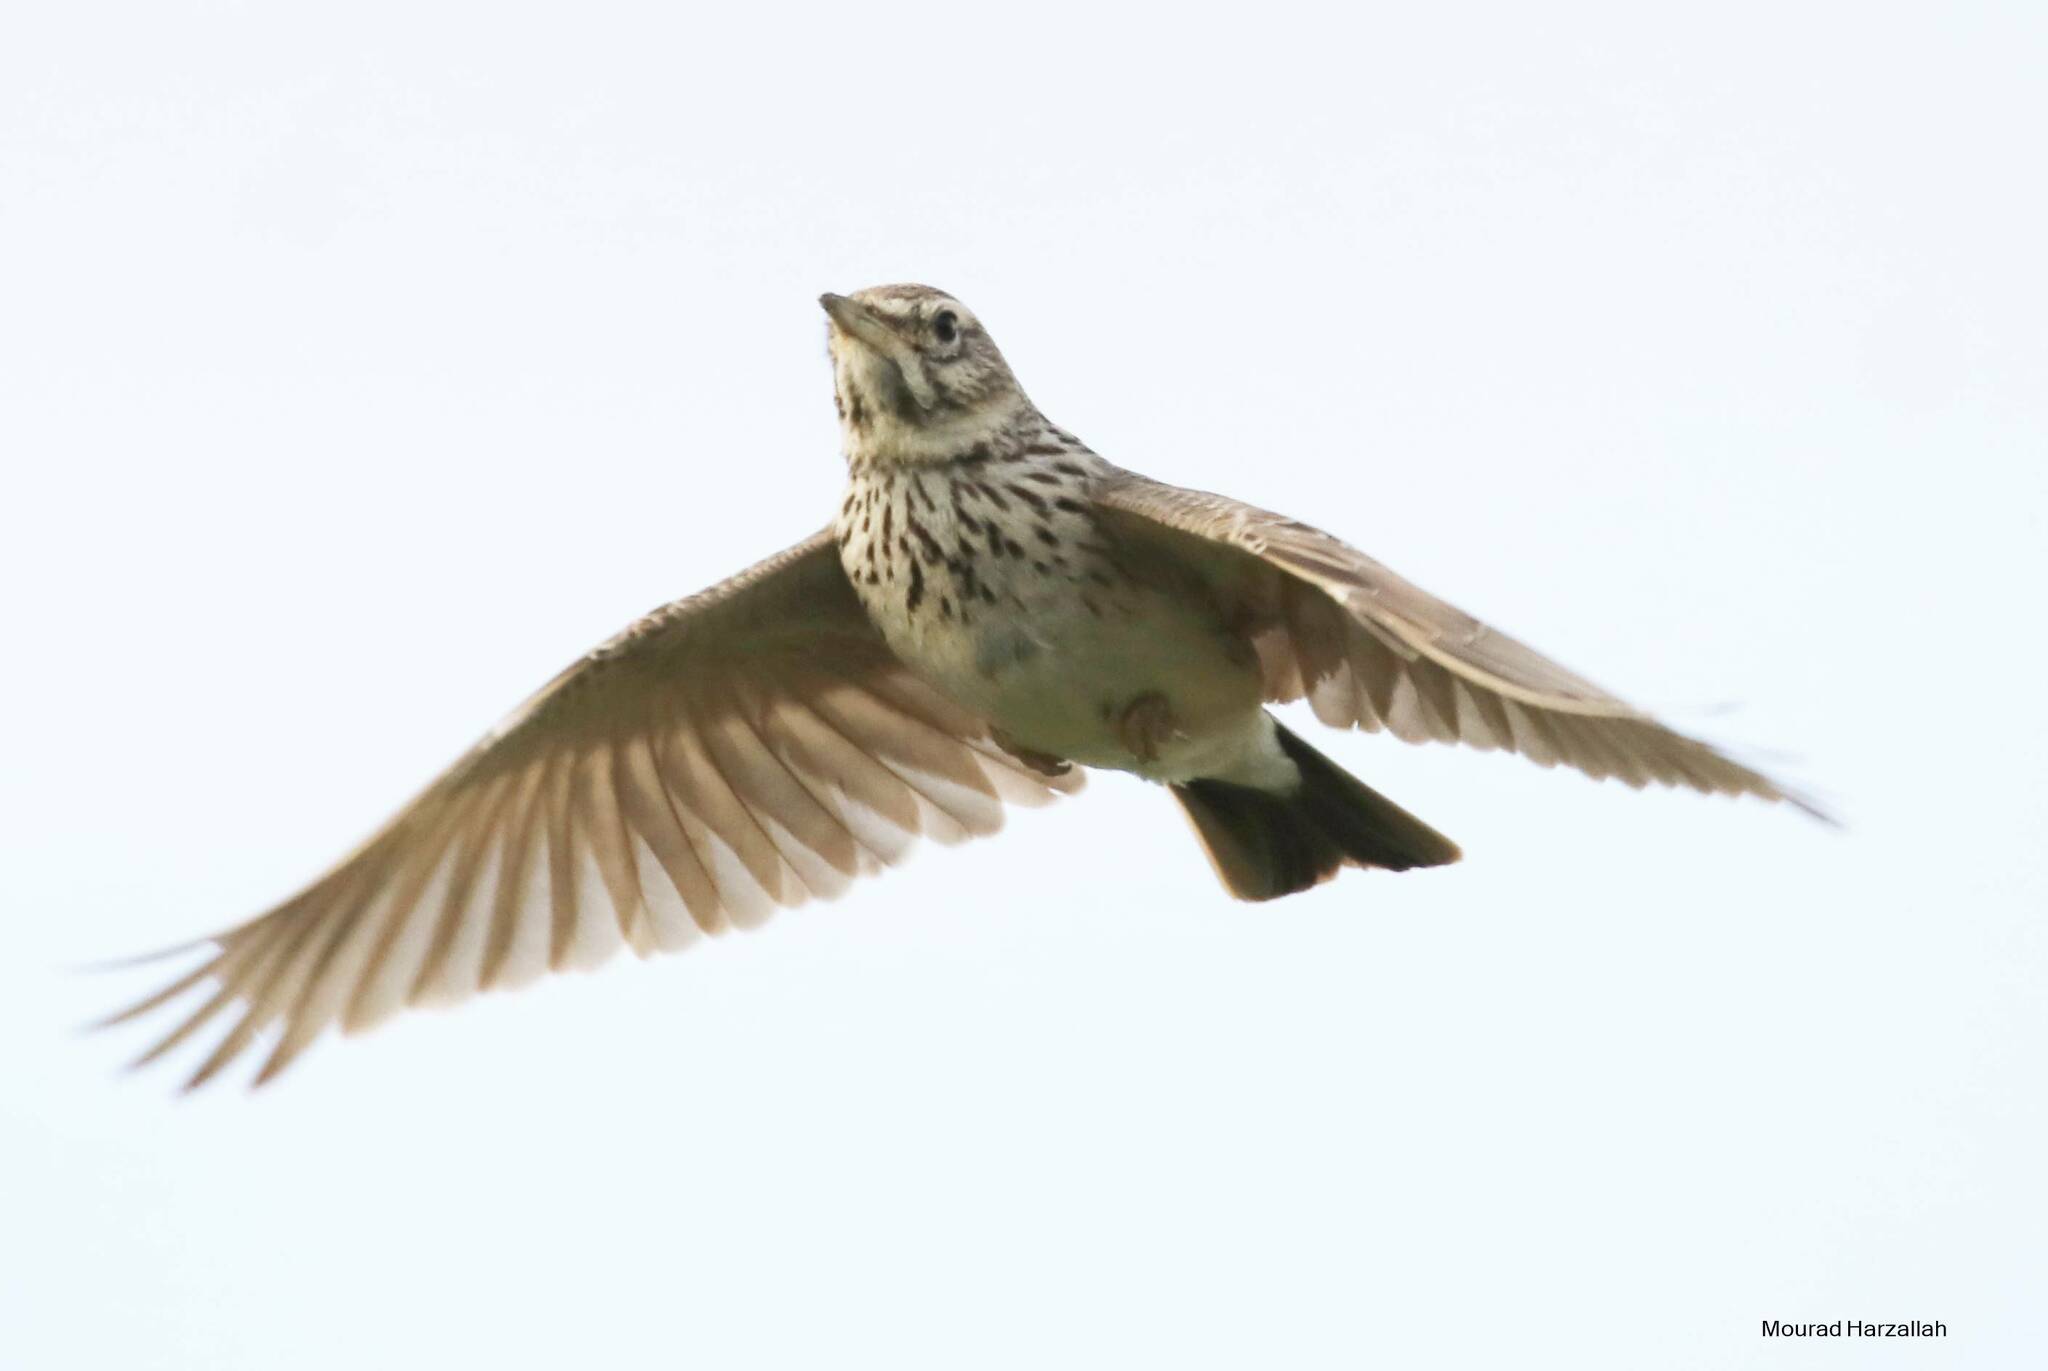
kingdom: Animalia
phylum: Chordata
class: Aves
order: Passeriformes
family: Alaudidae
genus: Galerida
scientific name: Galerida cristata
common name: Crested lark
